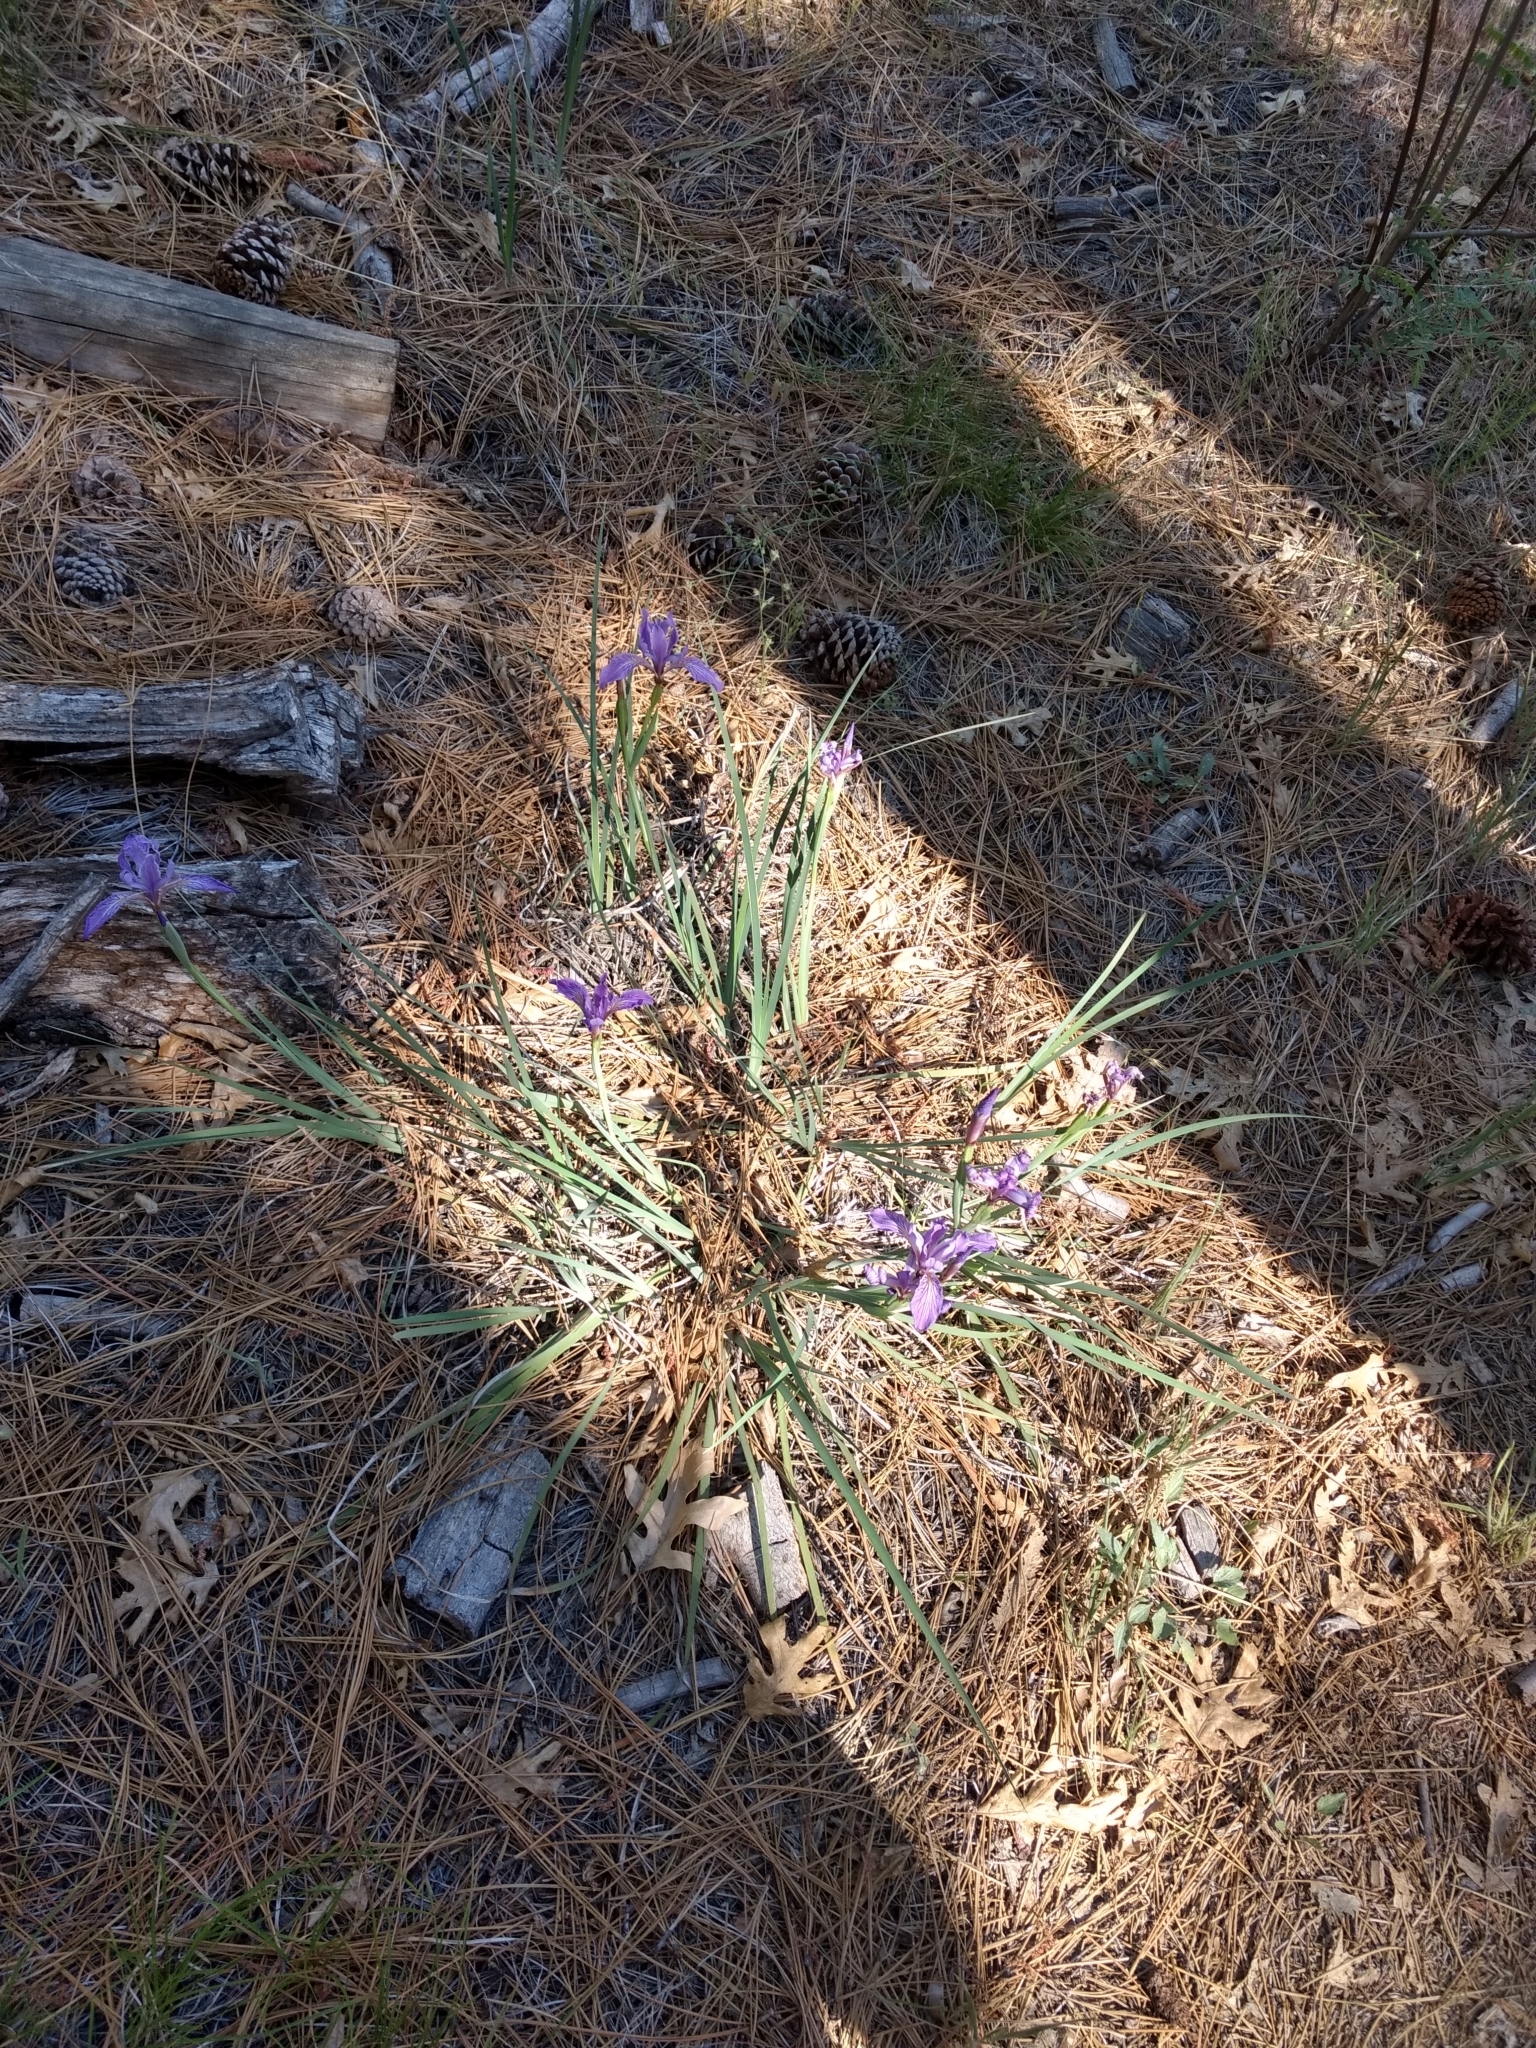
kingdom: Plantae
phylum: Tracheophyta
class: Liliopsida
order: Asparagales
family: Iridaceae
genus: Iris
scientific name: Iris hartwegii
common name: Sierra iris
